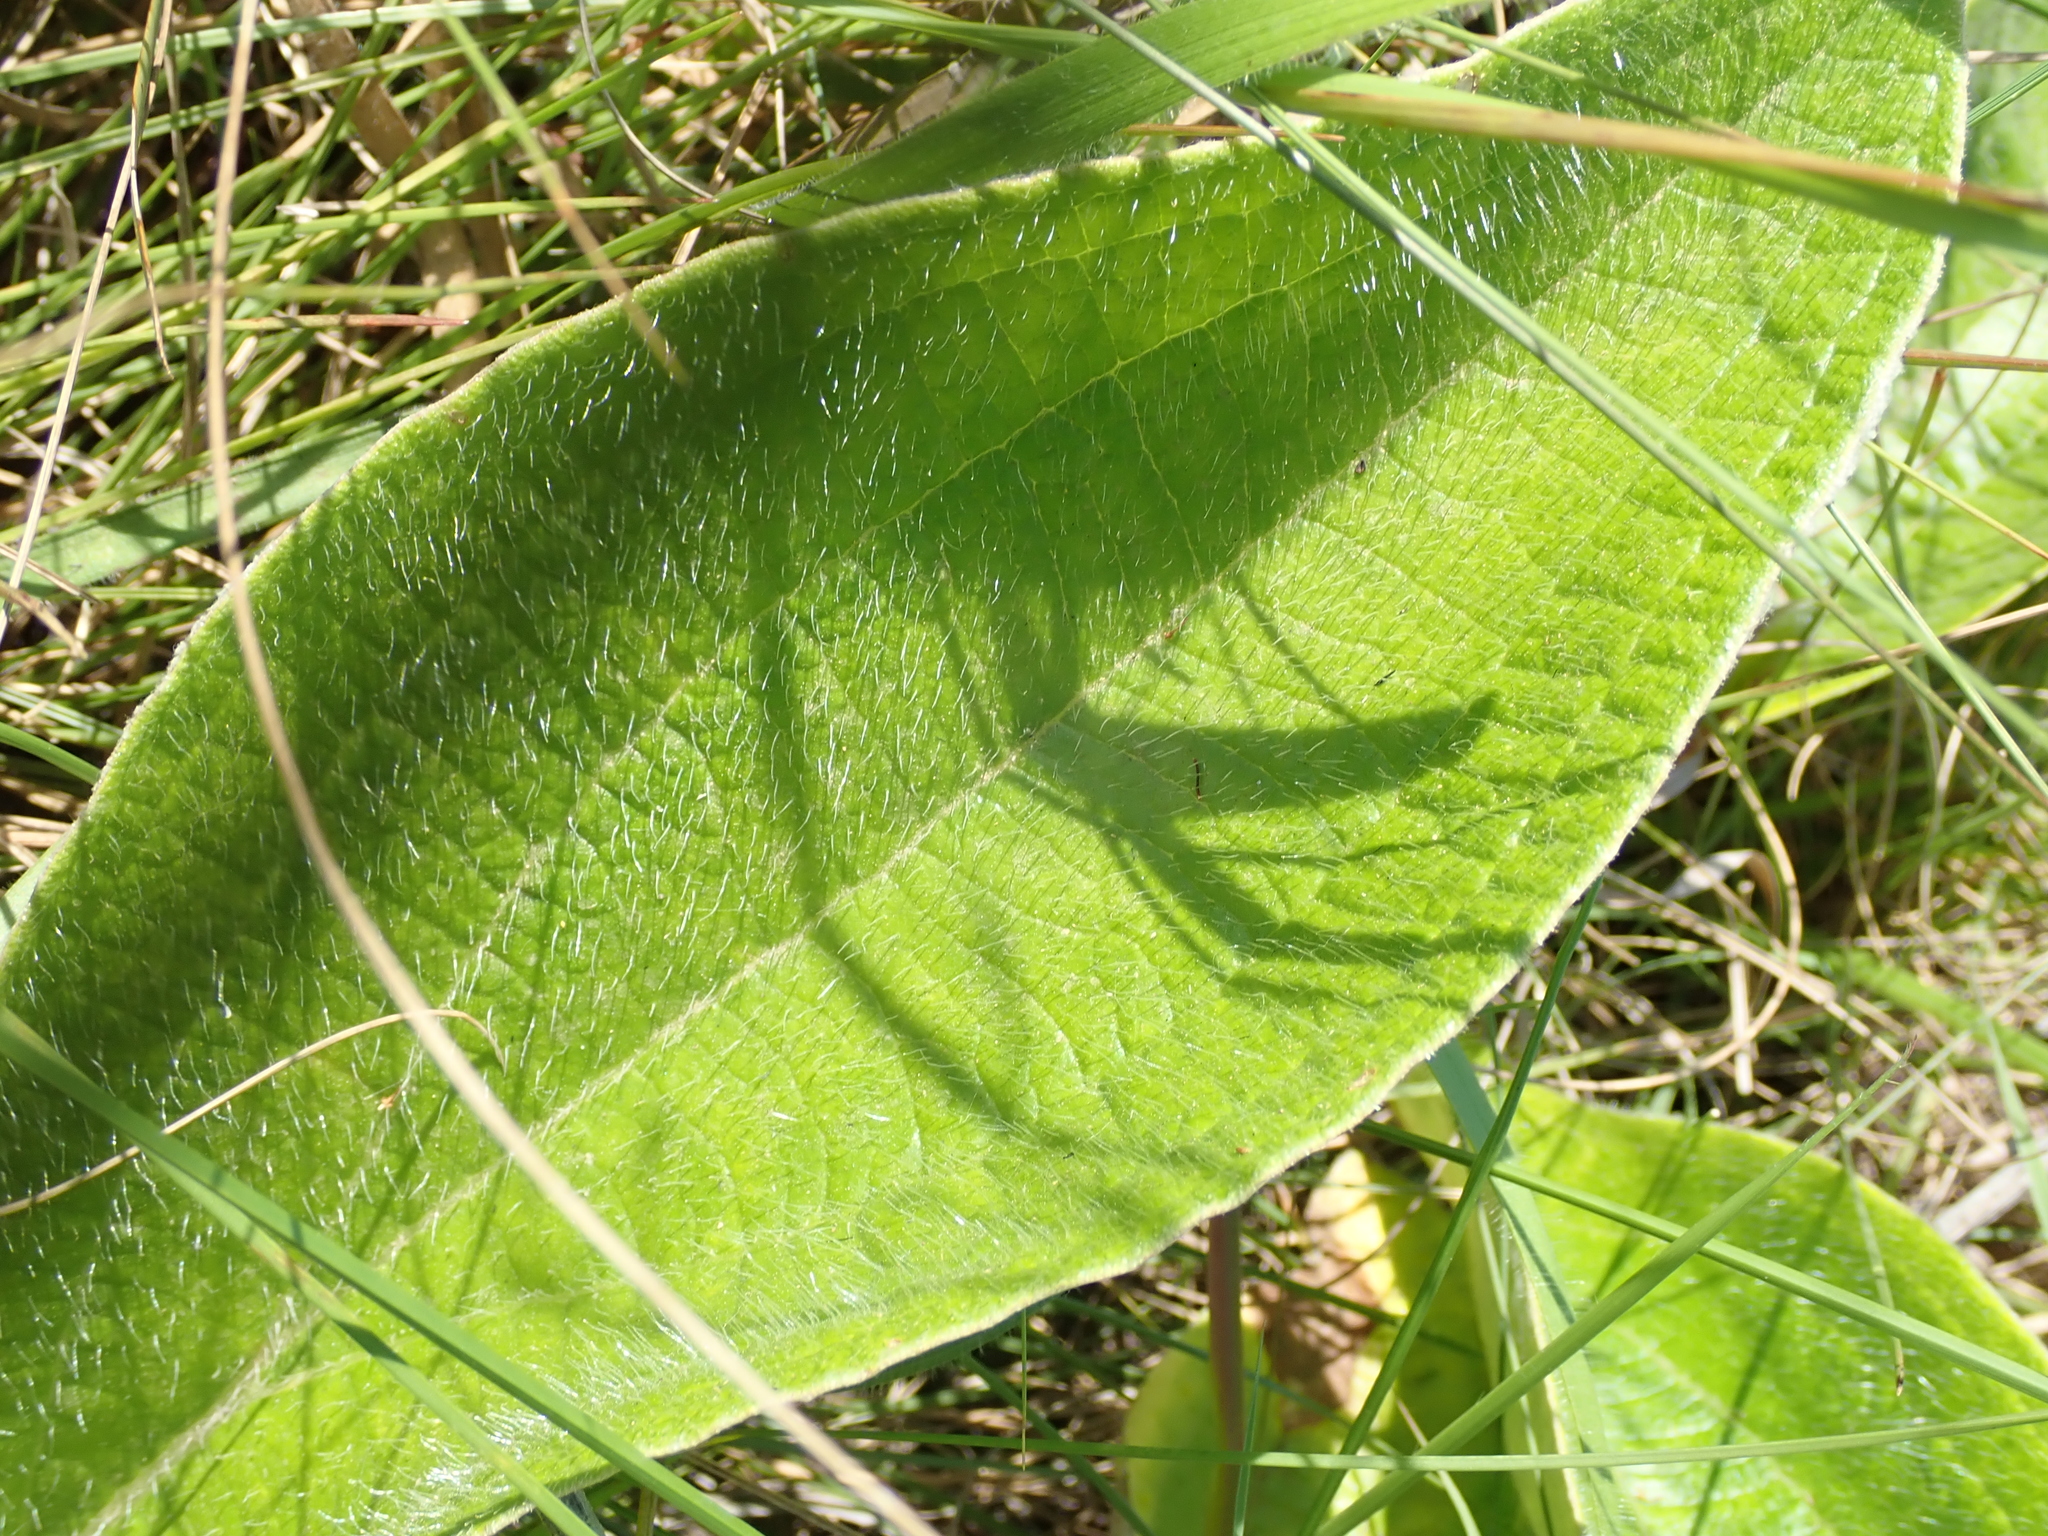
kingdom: Plantae
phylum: Tracheophyta
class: Magnoliopsida
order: Asterales
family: Asteraceae
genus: Helichrysum
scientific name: Helichrysum pallidum
